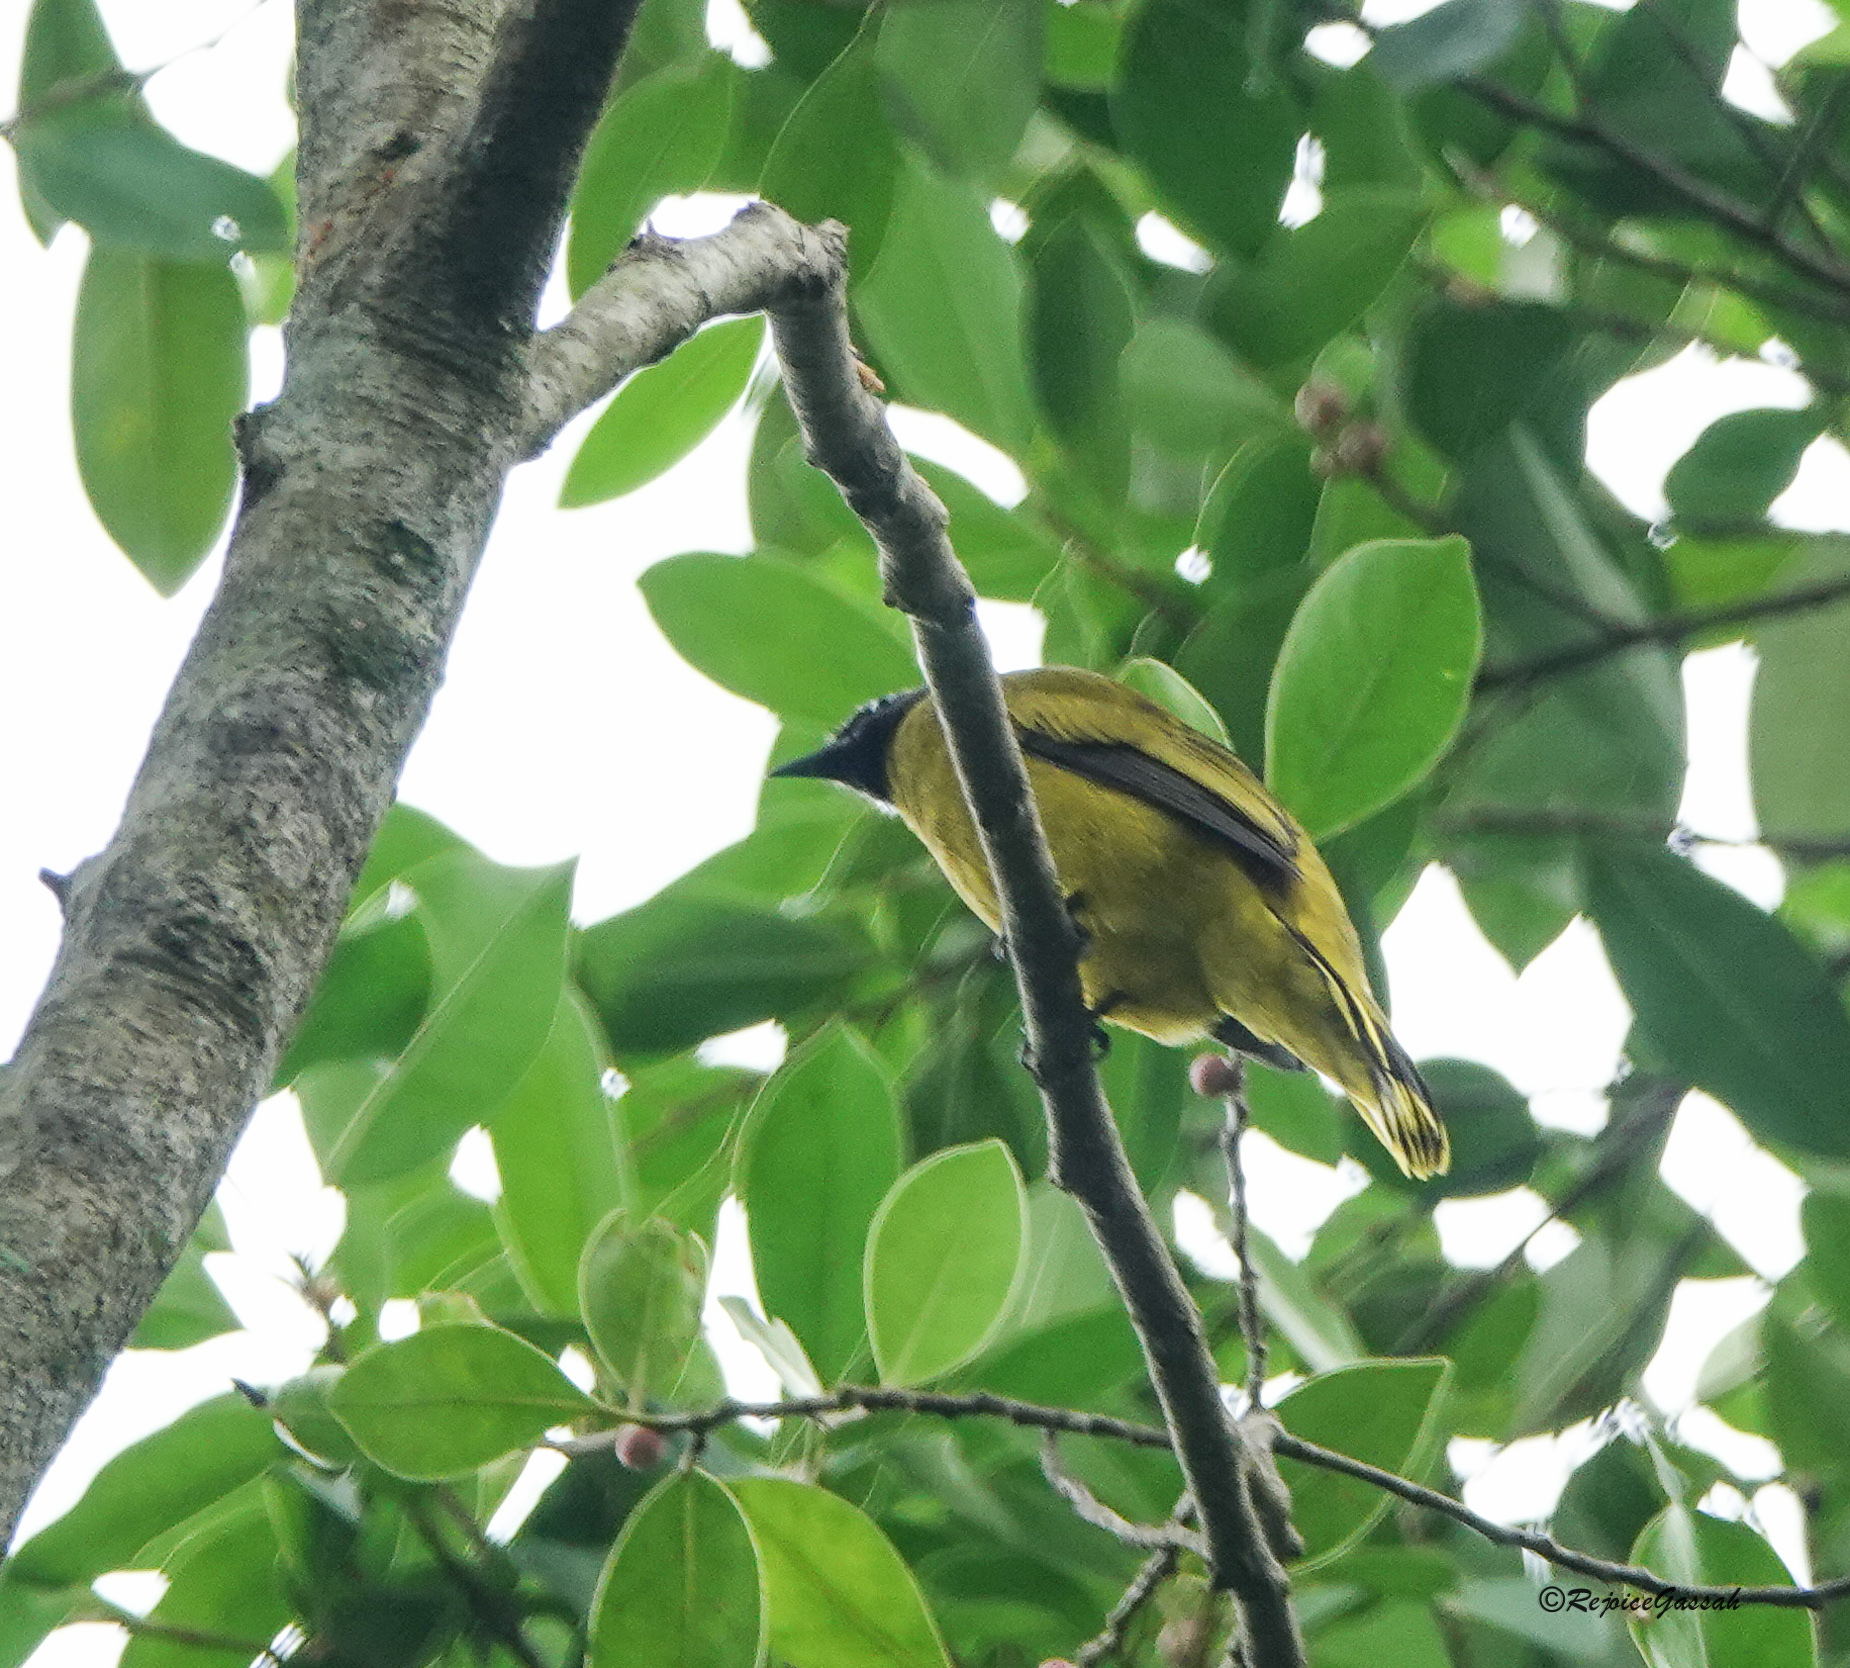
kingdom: Animalia
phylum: Chordata
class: Aves
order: Passeriformes
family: Pycnonotidae
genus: Microtarsus
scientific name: Microtarsus
